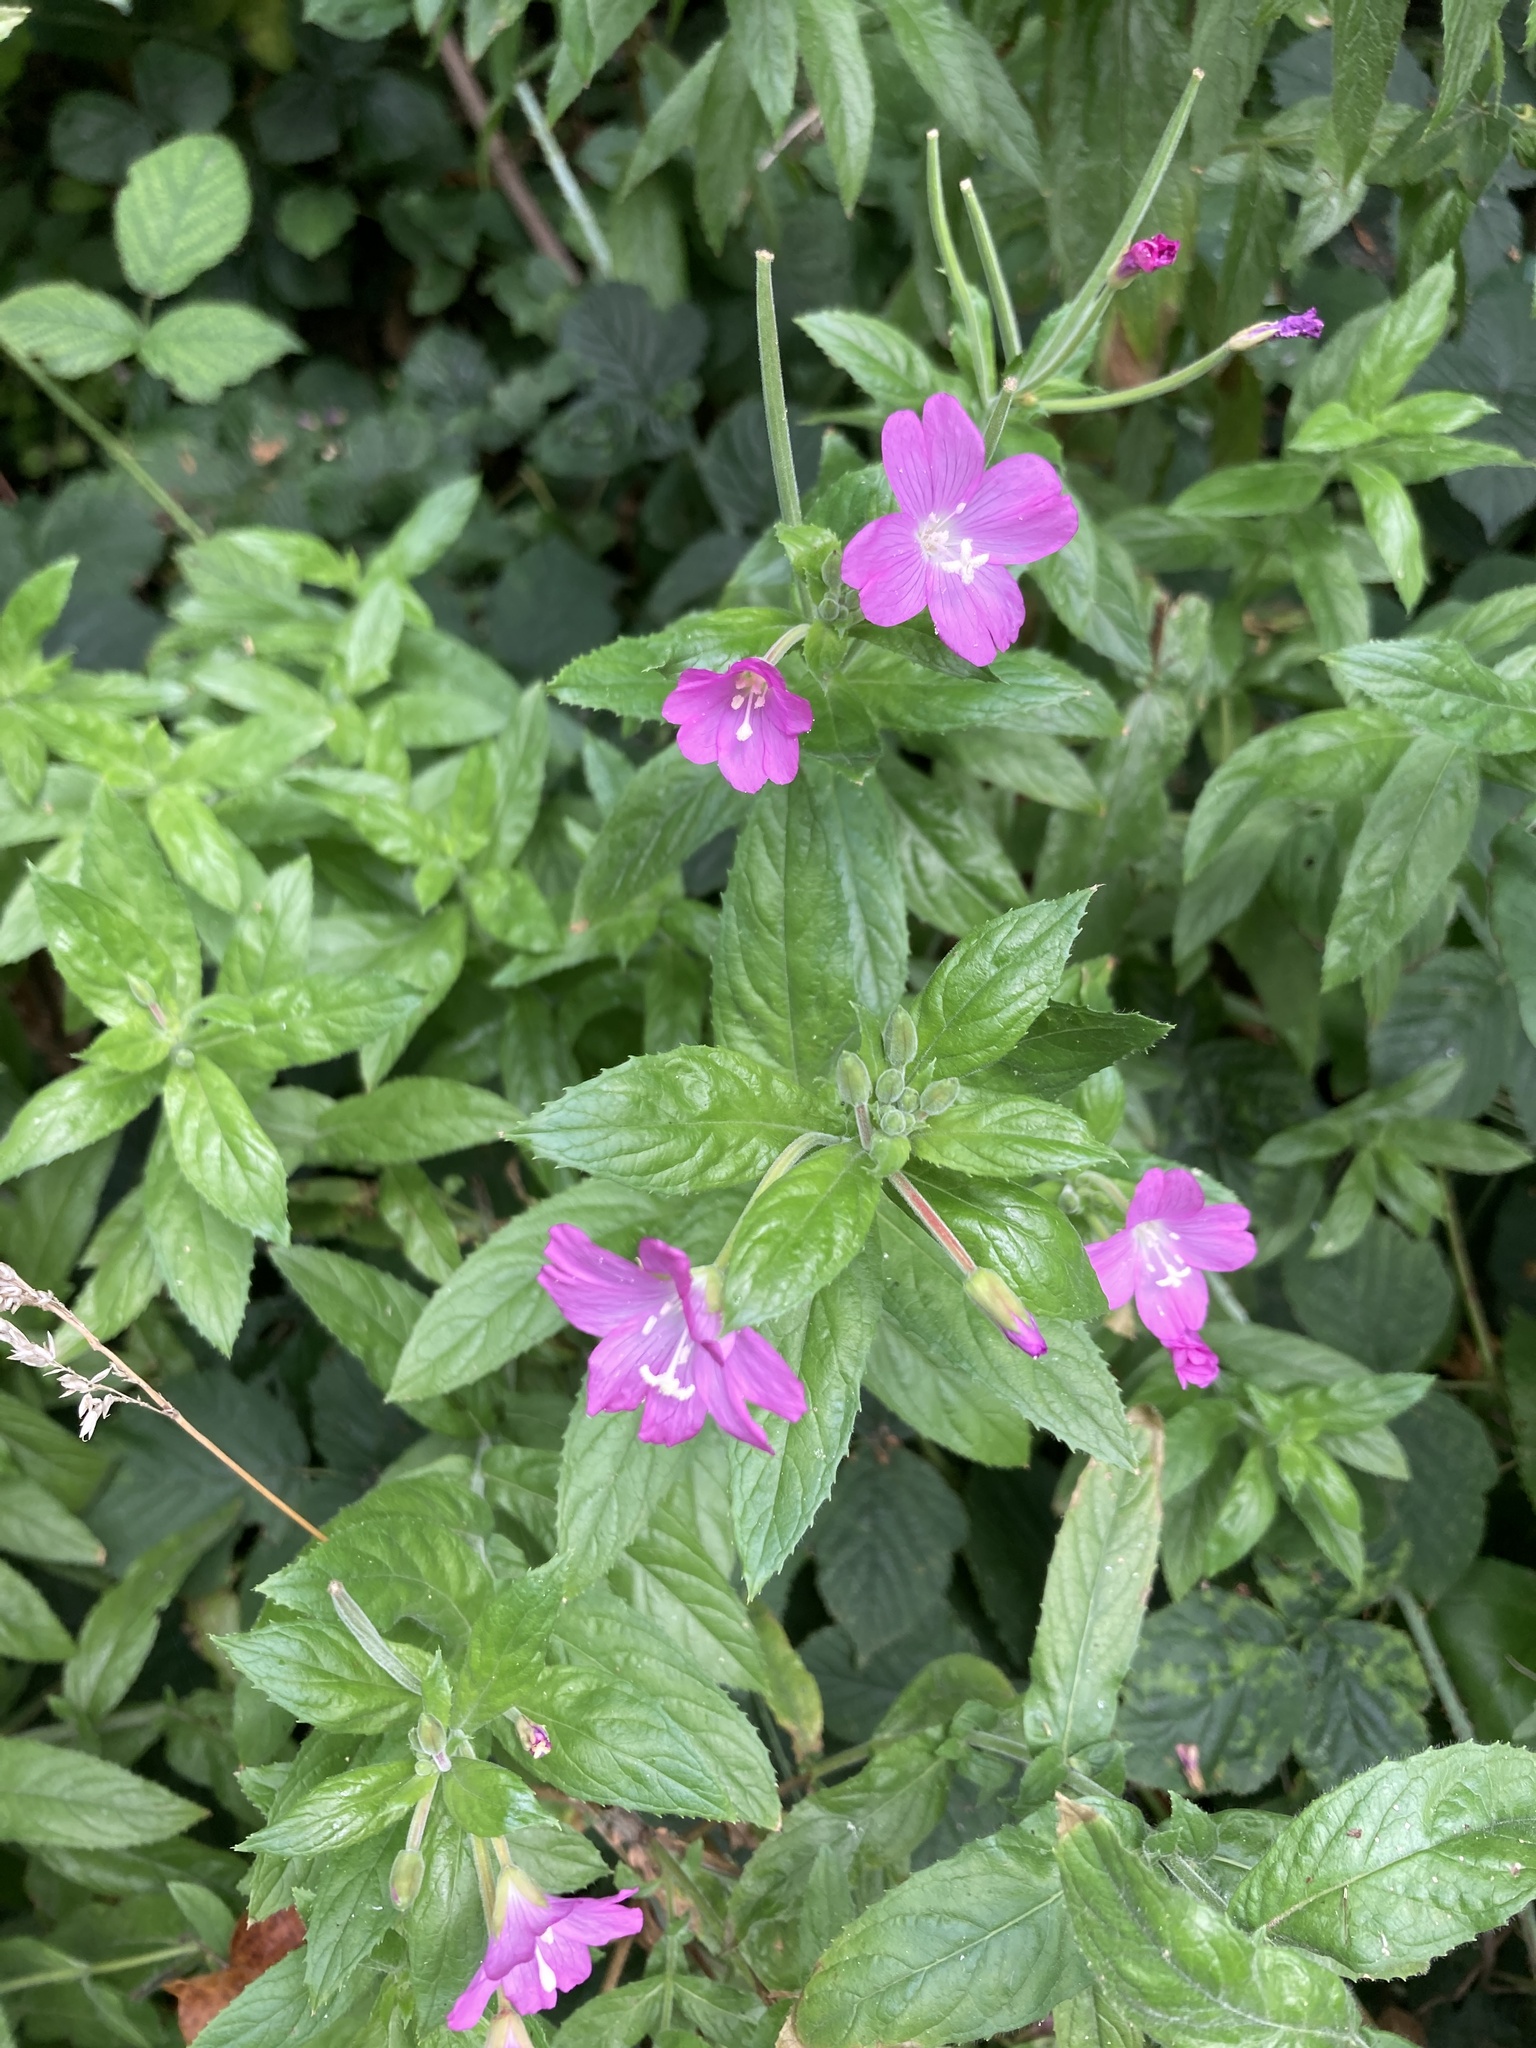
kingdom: Plantae
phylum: Tracheophyta
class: Magnoliopsida
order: Myrtales
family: Onagraceae
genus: Epilobium
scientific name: Epilobium hirsutum
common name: Great willowherb
